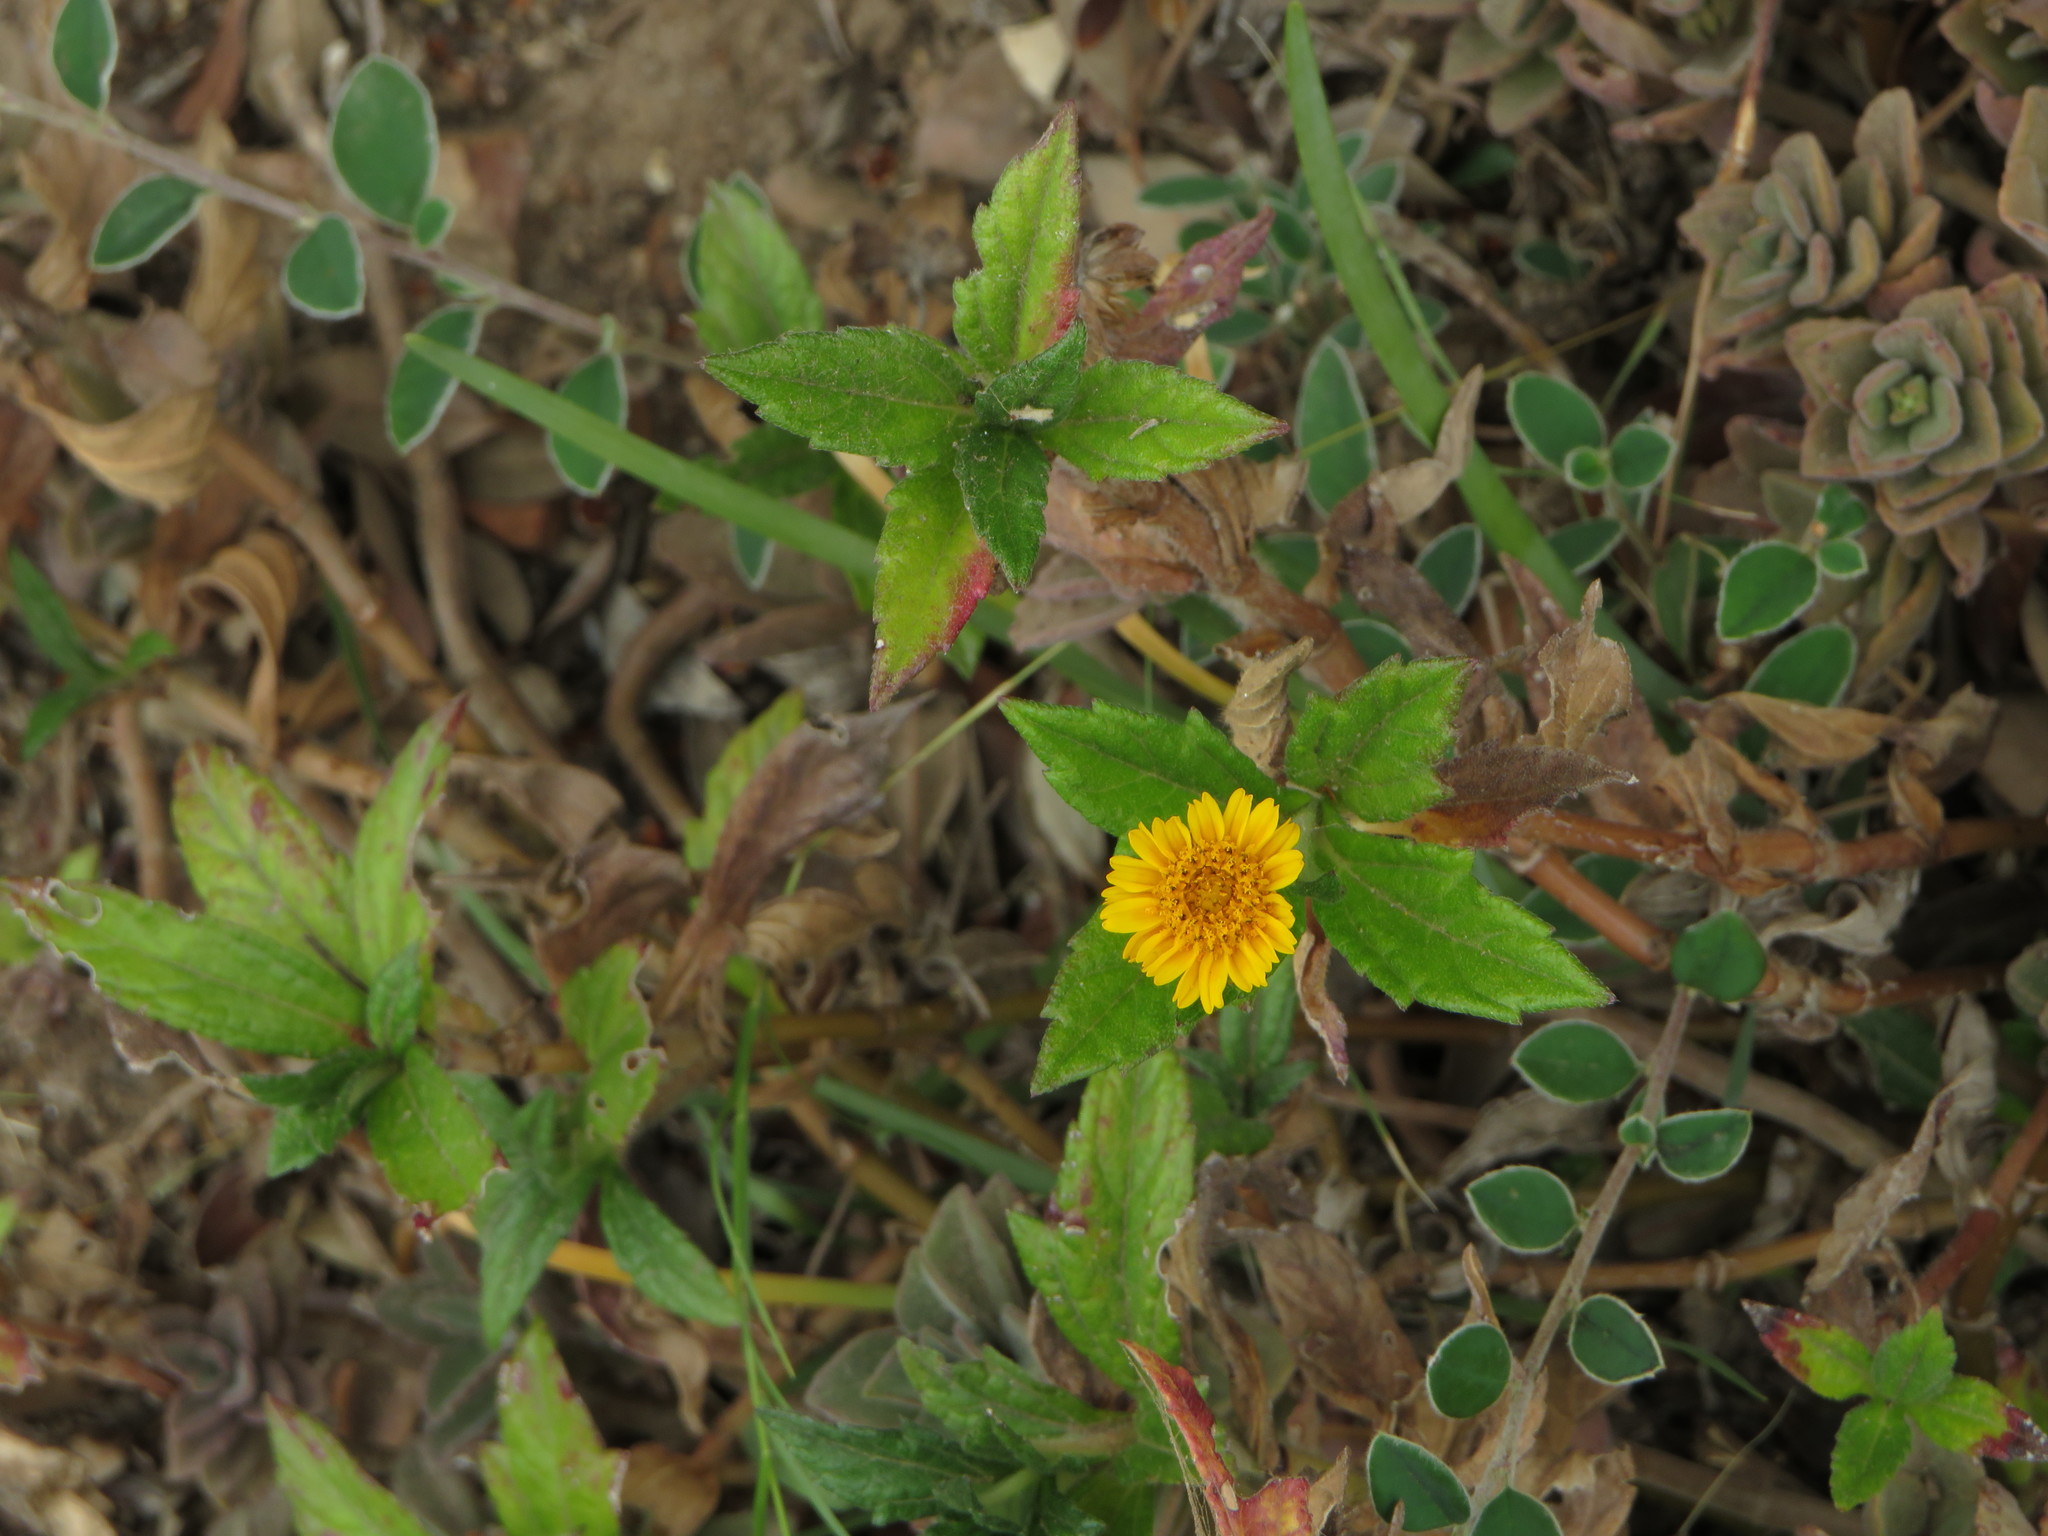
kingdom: Plantae
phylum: Tracheophyta
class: Magnoliopsida
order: Asterales
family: Asteraceae
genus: Sphagneticola
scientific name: Sphagneticola trilobata
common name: Bay biscayne creeping-oxeye
